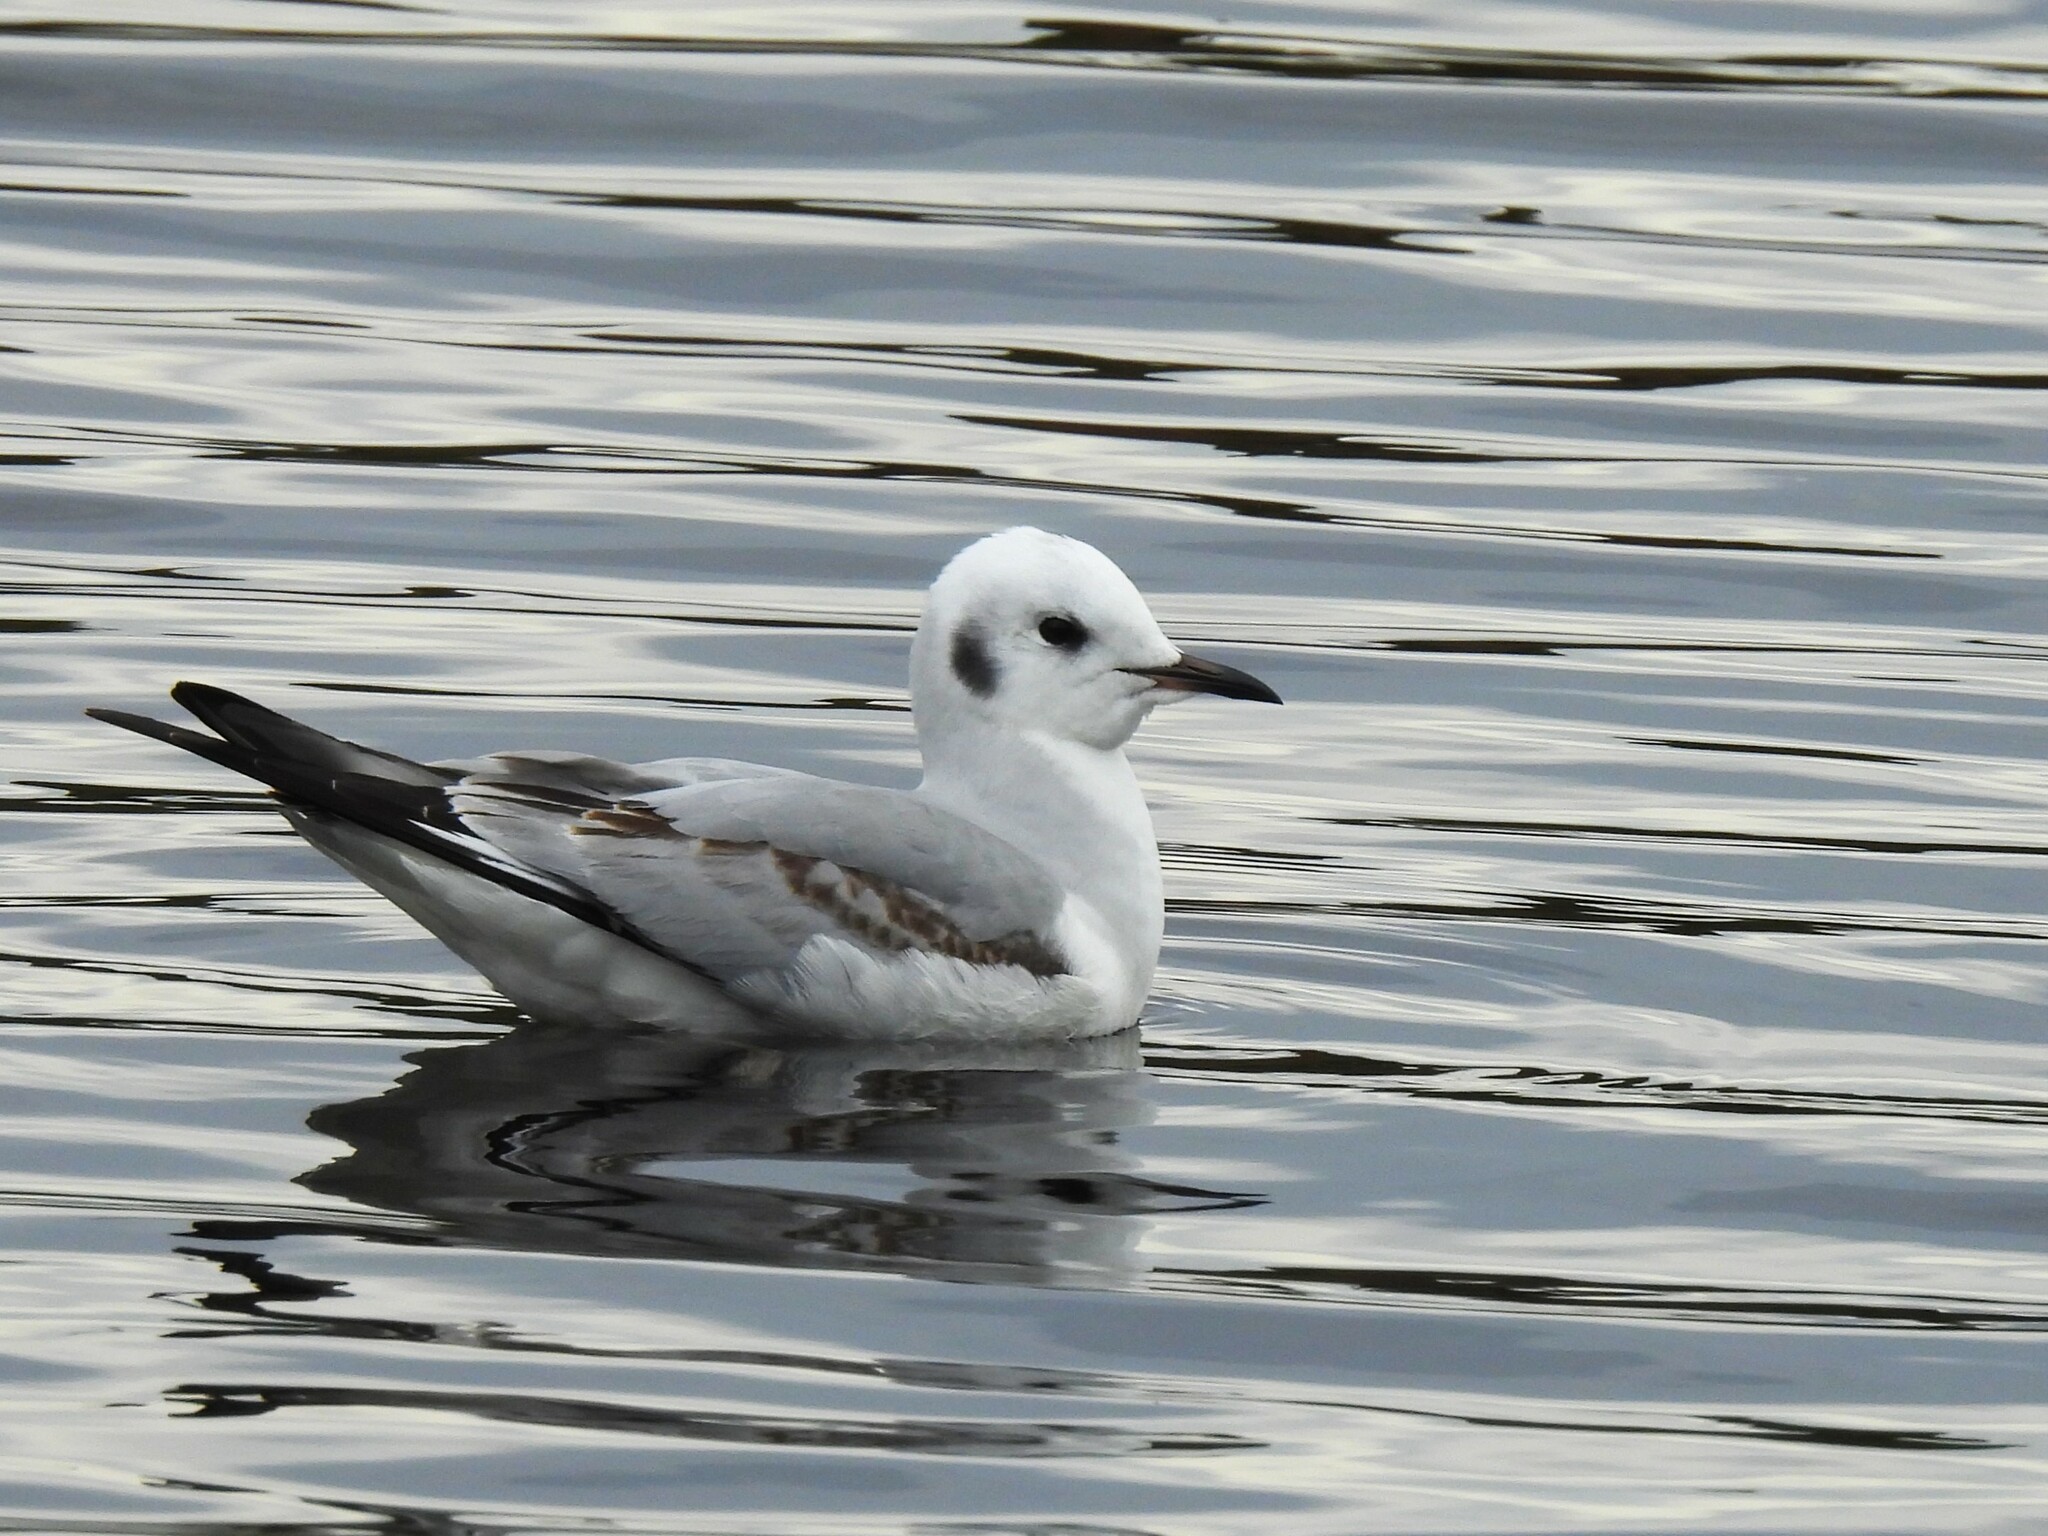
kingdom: Animalia
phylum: Chordata
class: Aves
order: Charadriiformes
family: Laridae
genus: Chroicocephalus
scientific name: Chroicocephalus philadelphia
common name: Bonaparte's gull
